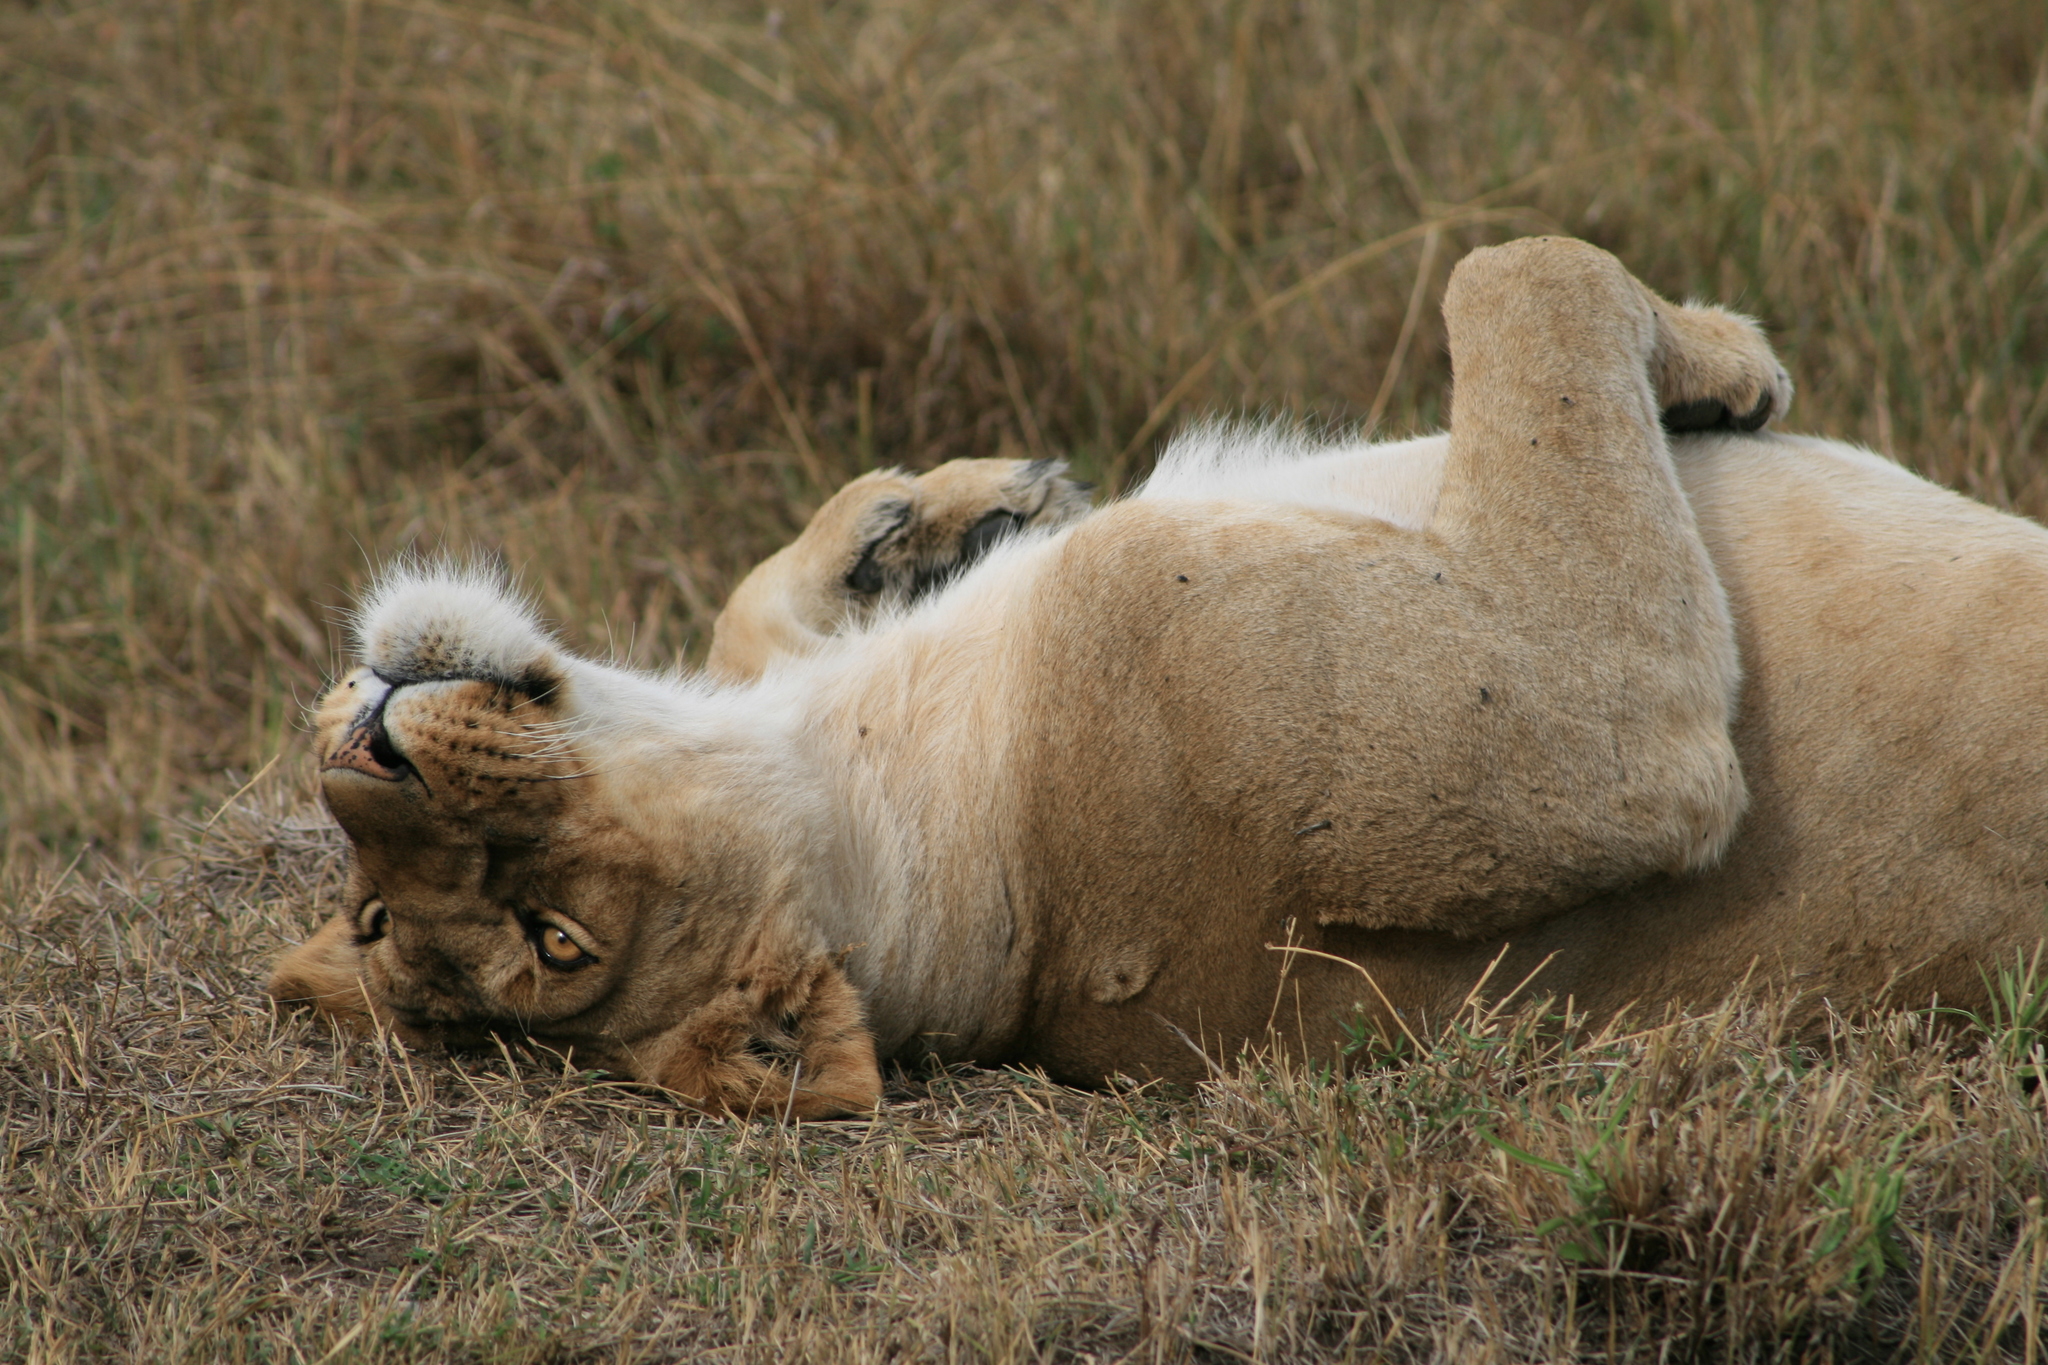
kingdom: Animalia
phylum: Chordata
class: Mammalia
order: Carnivora
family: Felidae
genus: Panthera
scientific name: Panthera leo
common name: Lion
